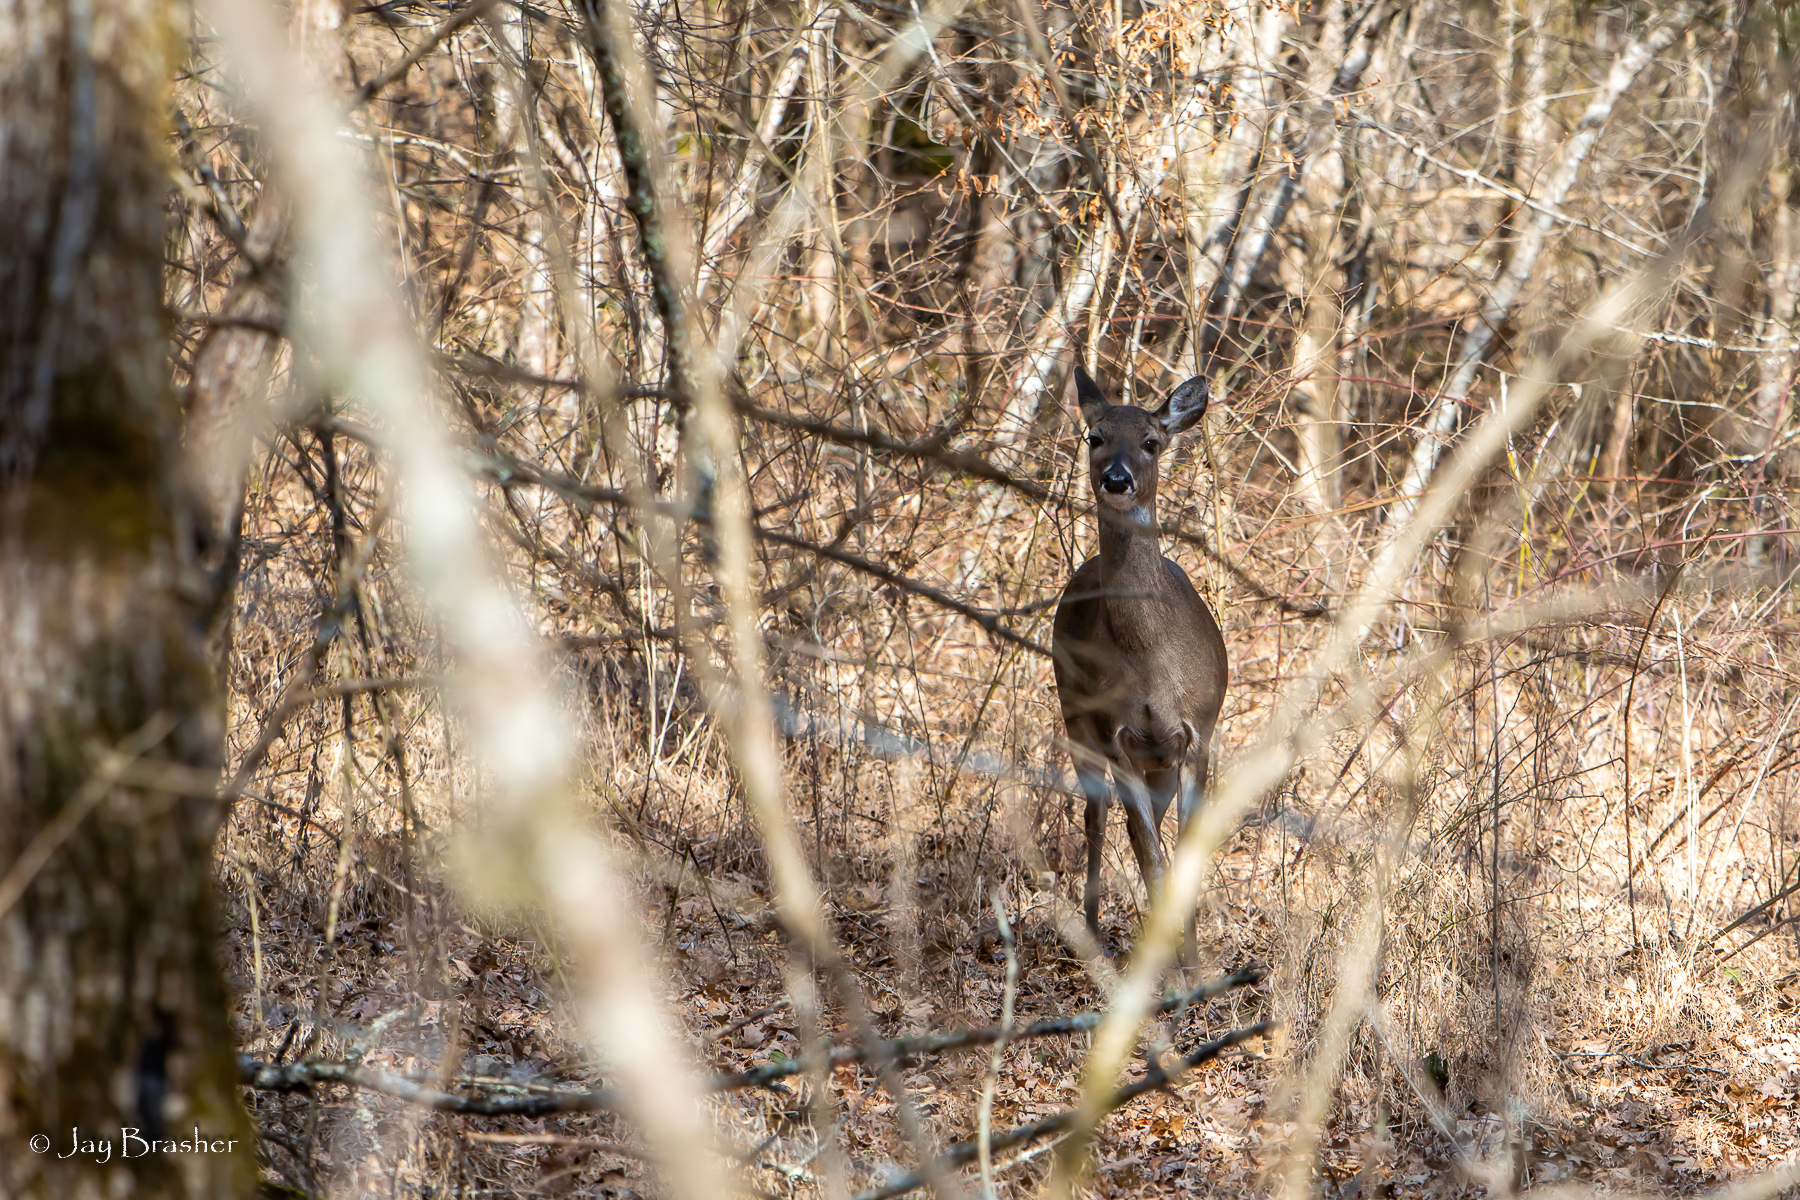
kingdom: Animalia
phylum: Chordata
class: Mammalia
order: Artiodactyla
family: Cervidae
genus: Odocoileus
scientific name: Odocoileus virginianus
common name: White-tailed deer
